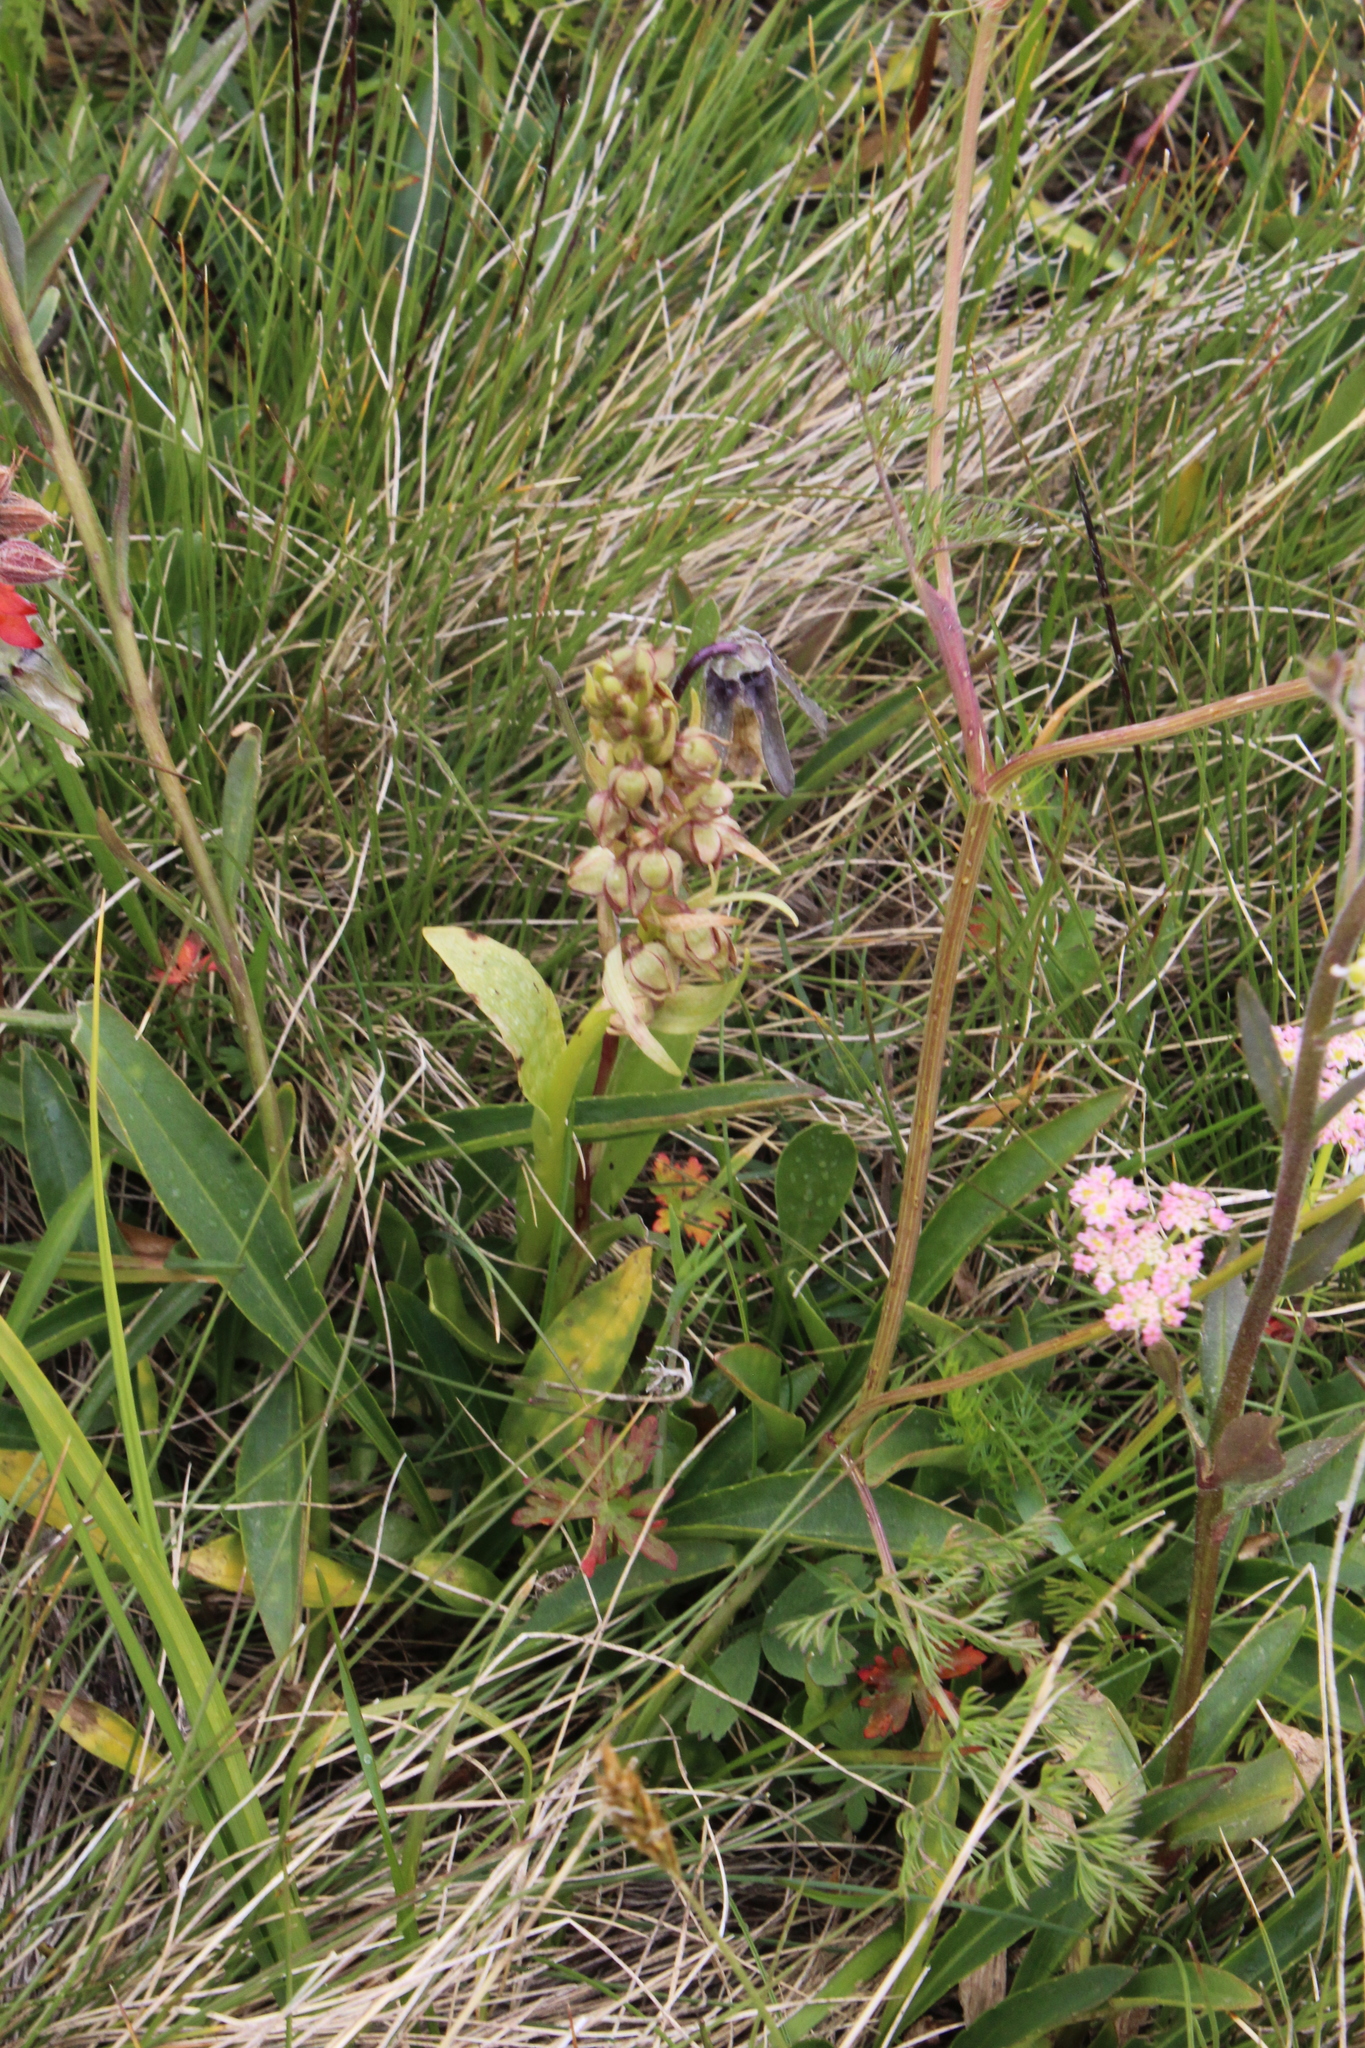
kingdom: Plantae
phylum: Tracheophyta
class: Liliopsida
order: Asparagales
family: Orchidaceae
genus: Dactylorhiza
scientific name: Dactylorhiza viridis
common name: Longbract frog orchid
